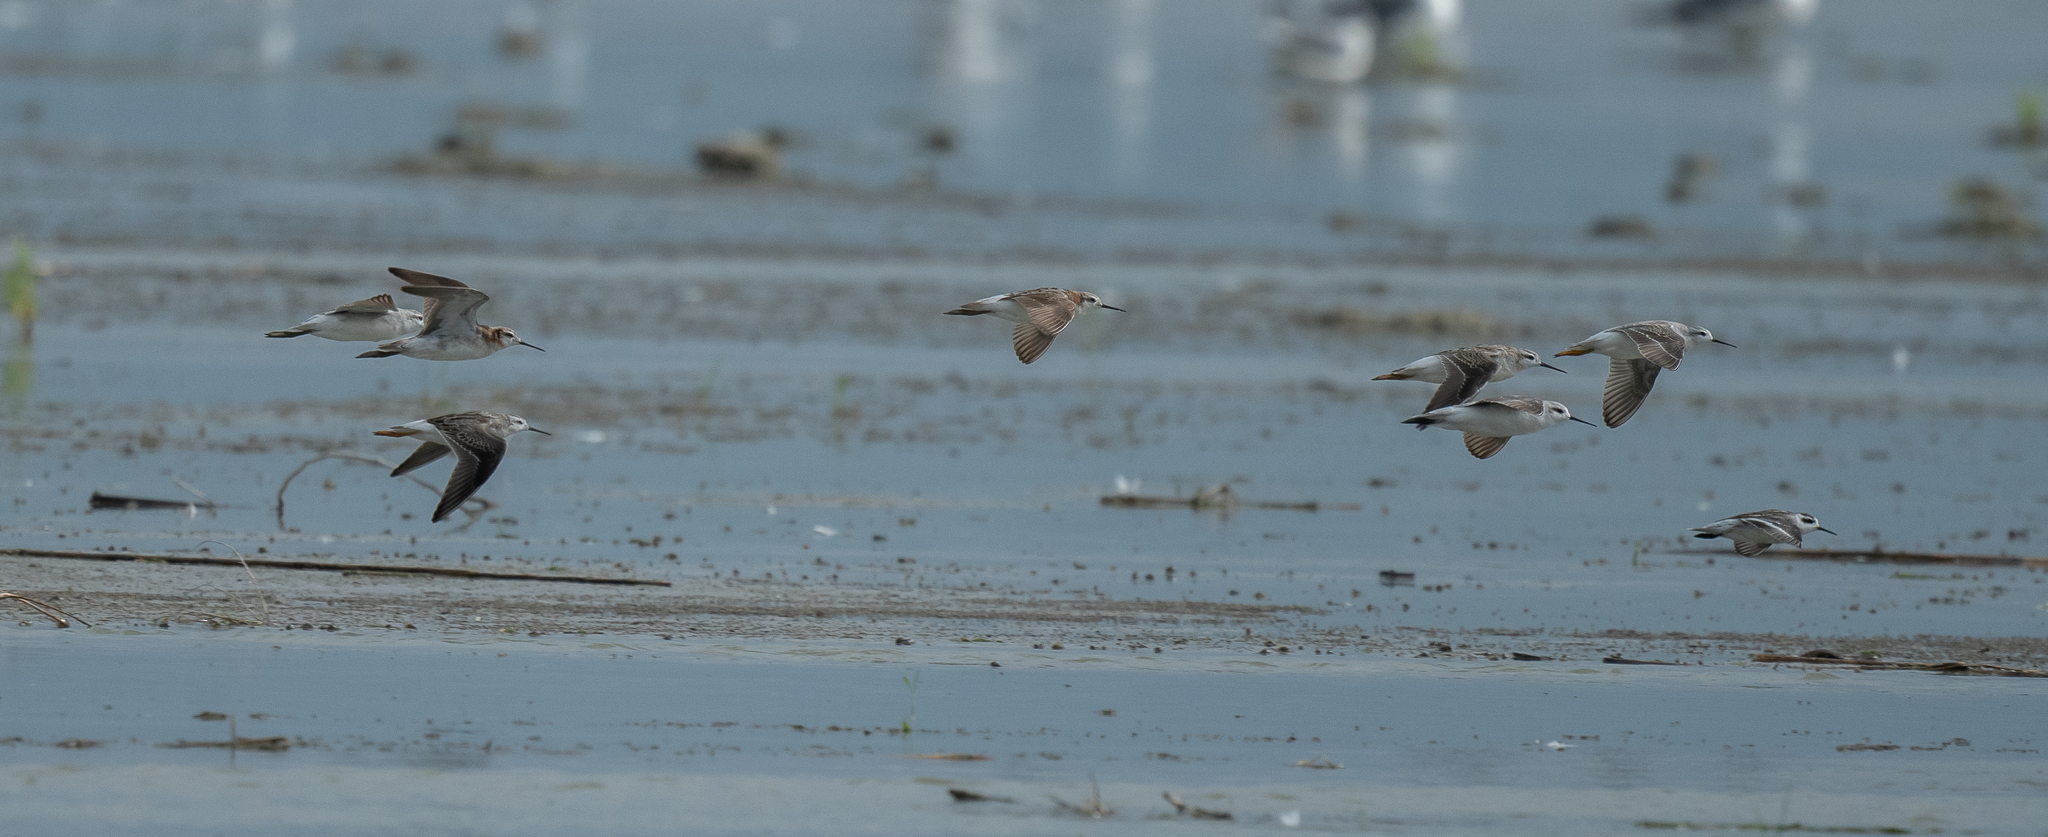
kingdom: Animalia
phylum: Chordata
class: Aves
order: Charadriiformes
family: Scolopacidae
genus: Phalaropus
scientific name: Phalaropus lobatus
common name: Red-necked phalarope
